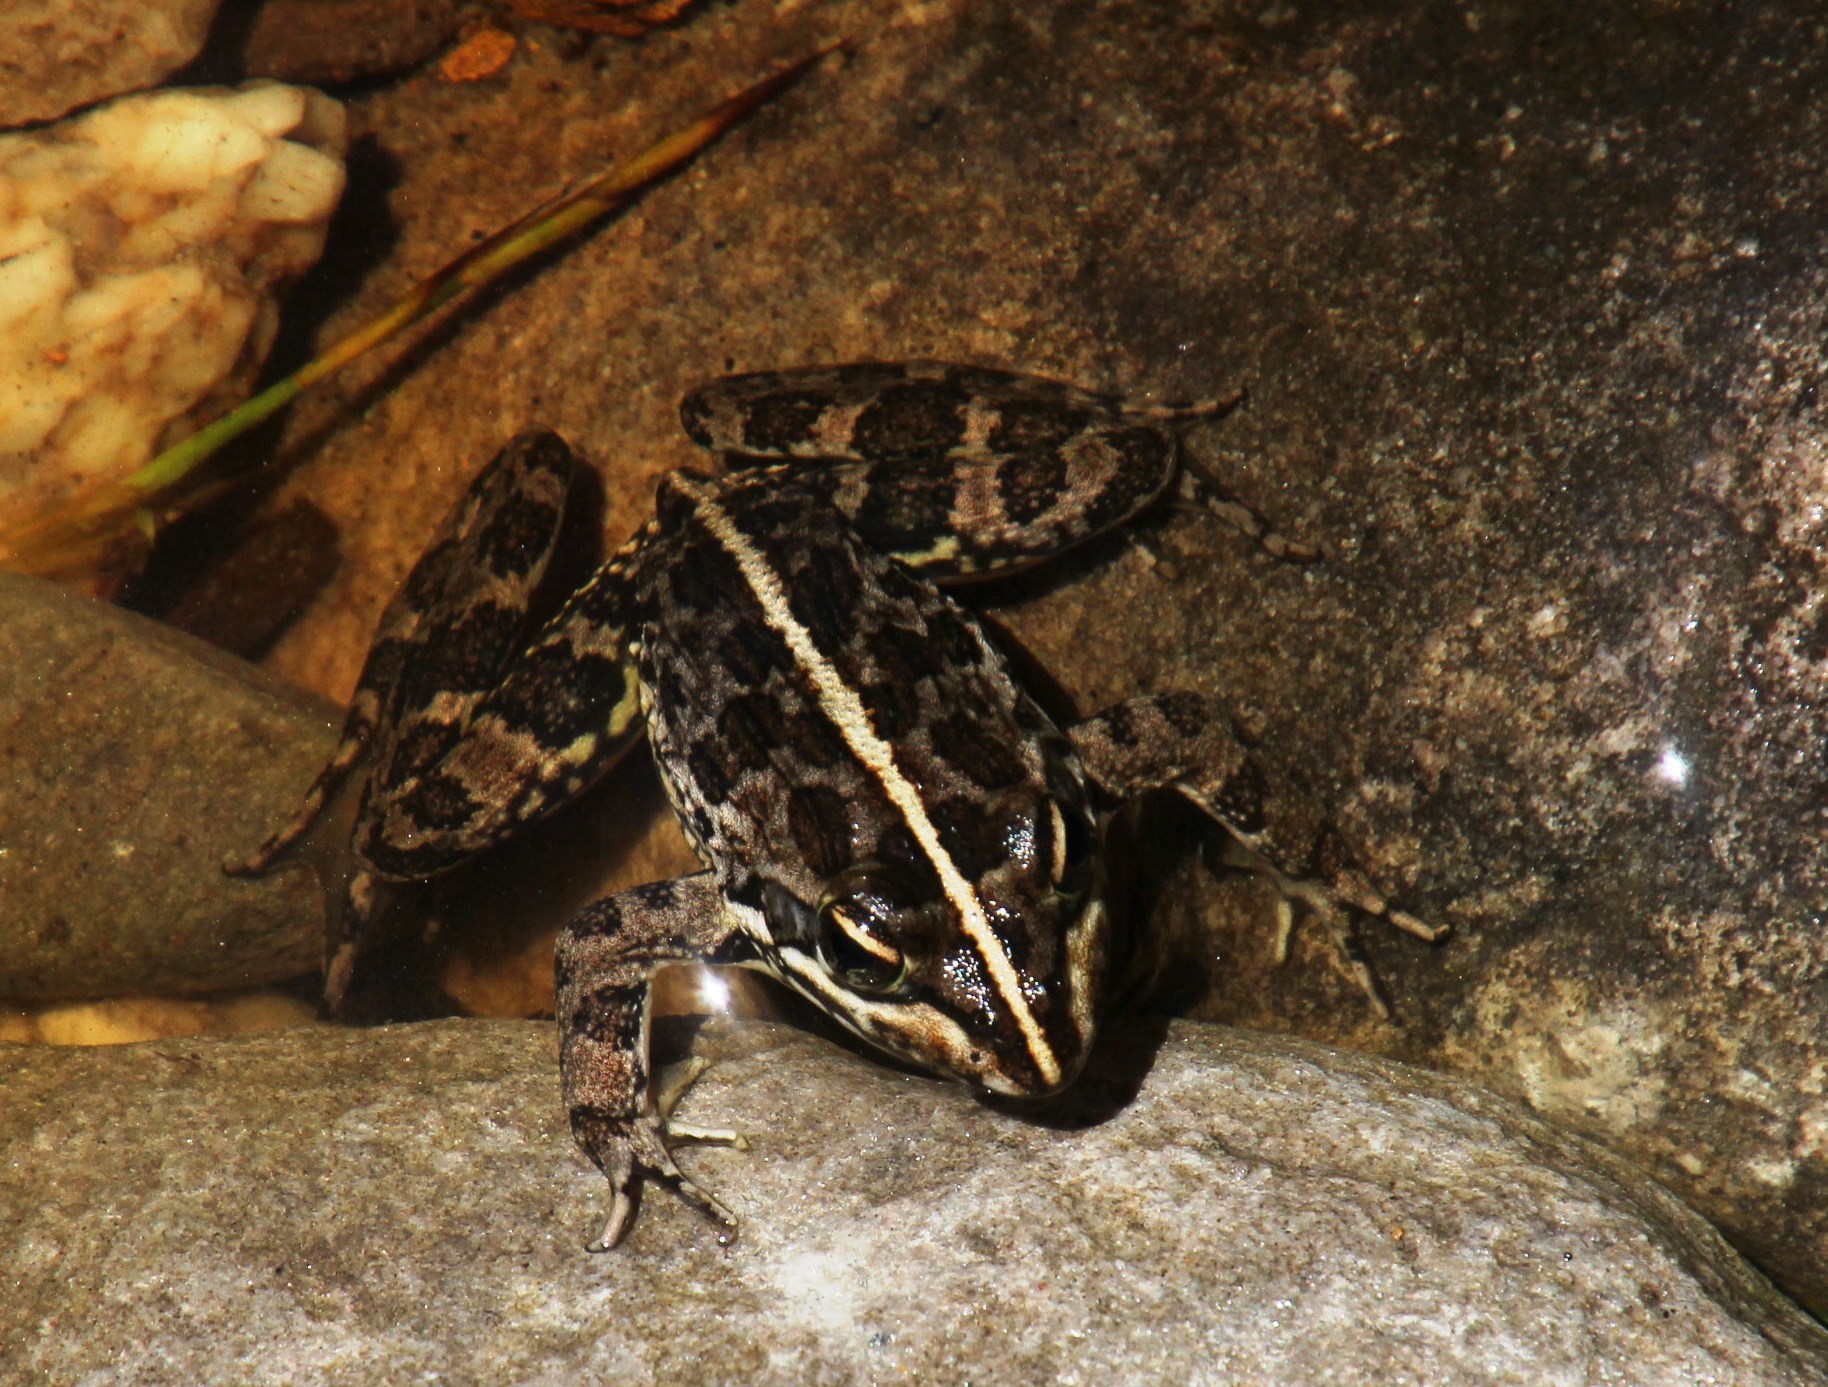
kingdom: Animalia
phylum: Chordata
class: Amphibia
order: Anura
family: Pyxicephalidae
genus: Amietia
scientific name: Amietia fuscigula
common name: Cape rana
